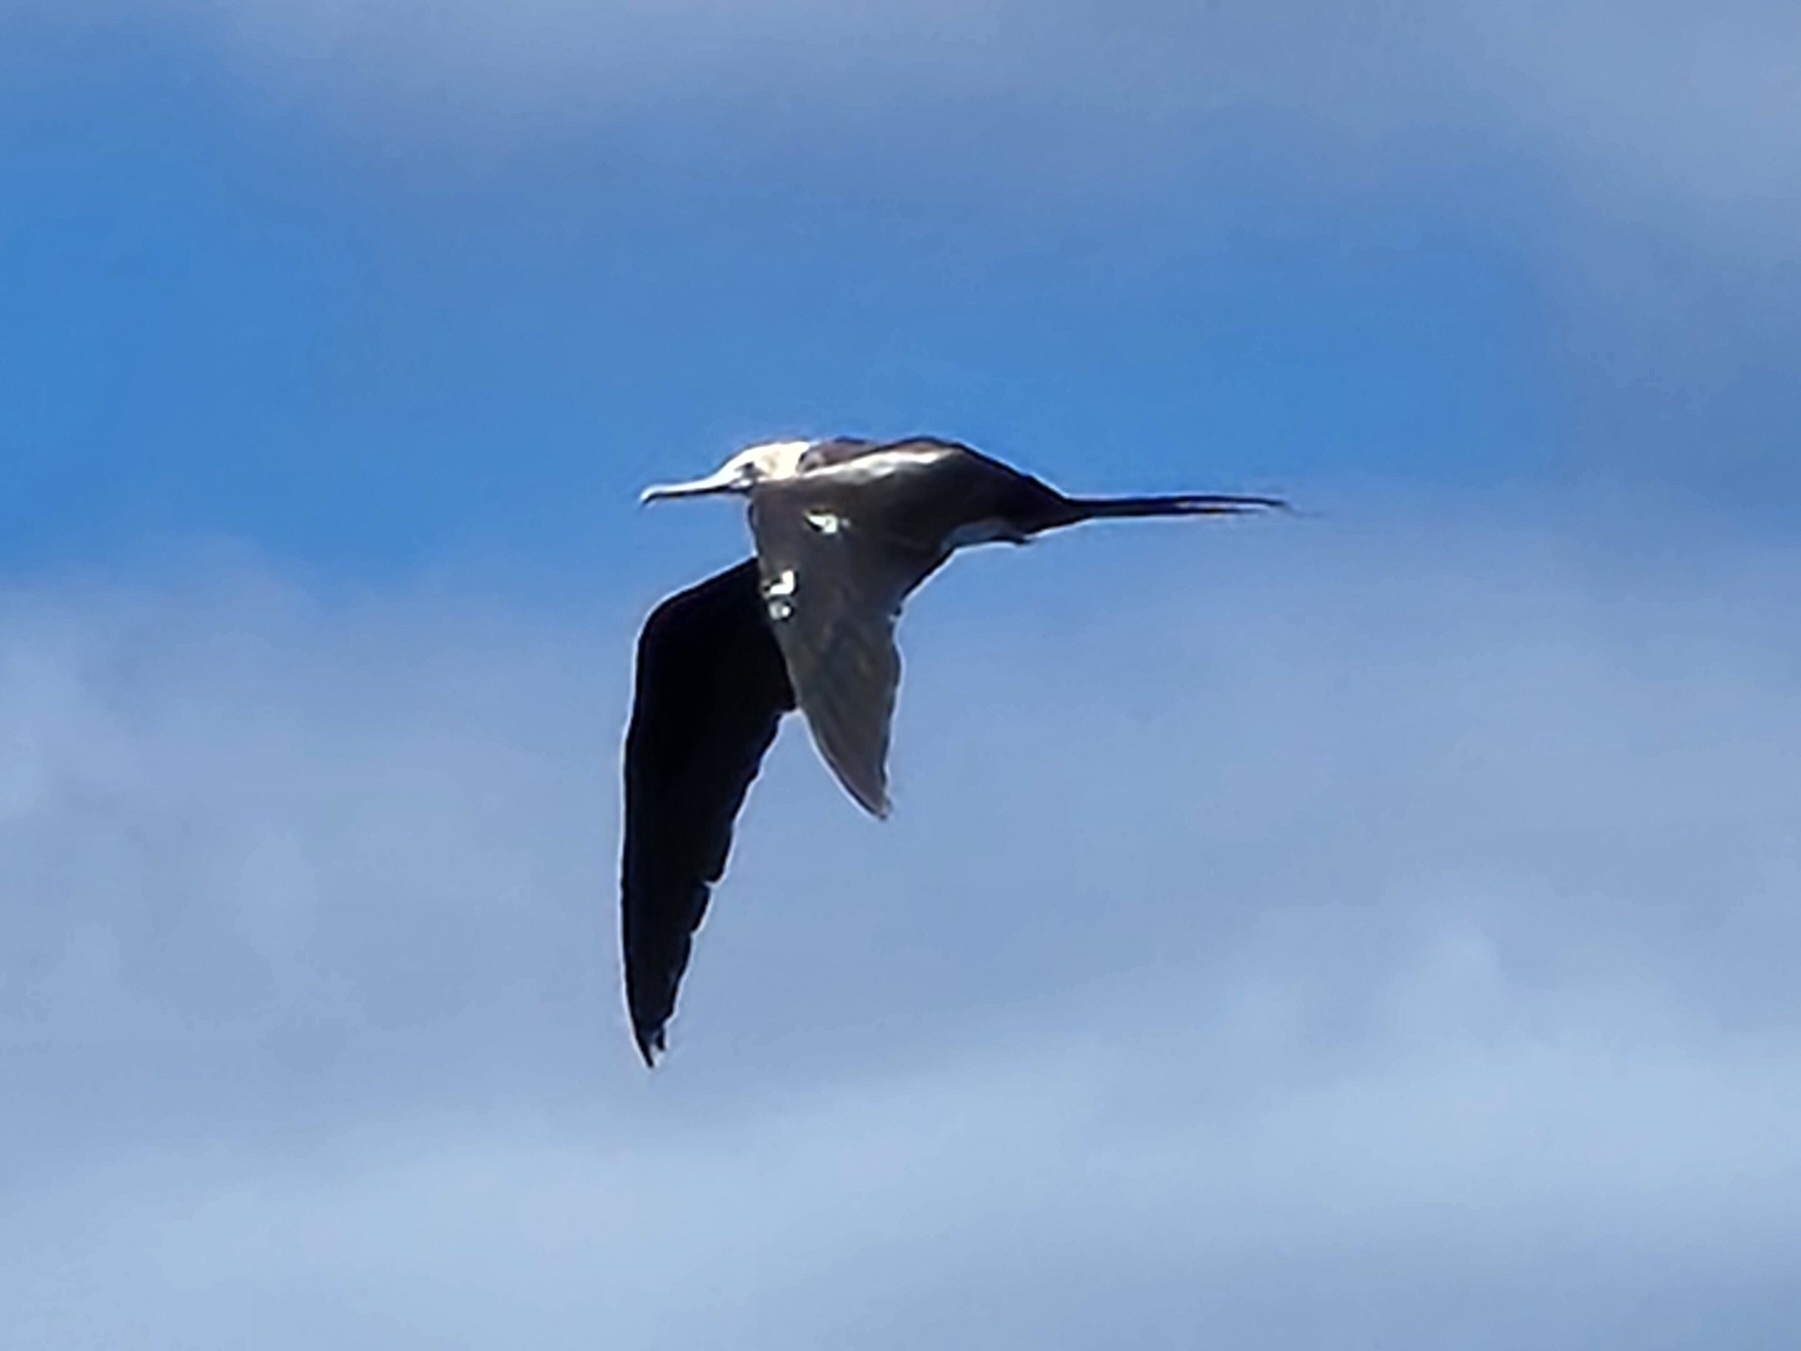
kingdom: Animalia
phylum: Chordata
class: Aves
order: Suliformes
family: Fregatidae
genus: Fregata
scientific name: Fregata minor
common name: Great frigatebird
